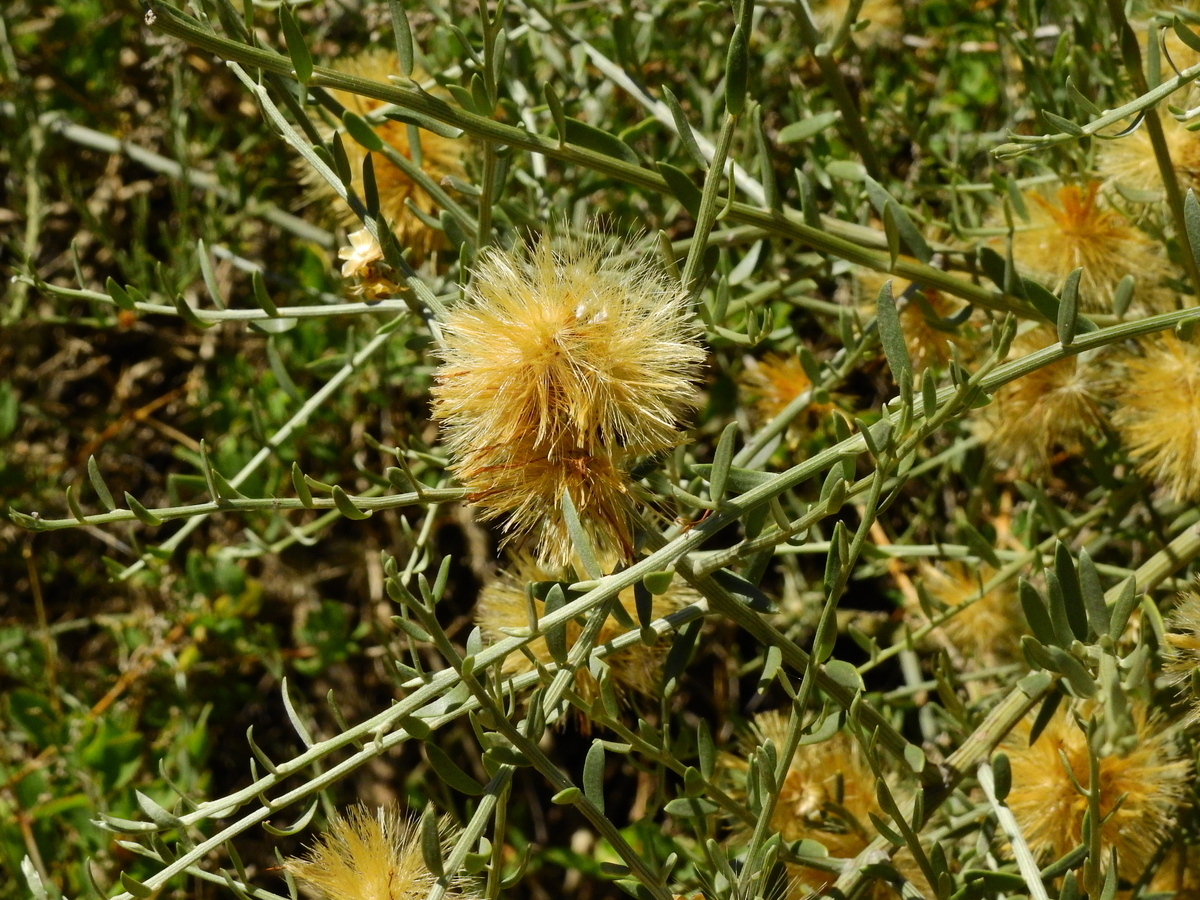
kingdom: Plantae
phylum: Tracheophyta
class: Magnoliopsida
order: Asterales
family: Asteraceae
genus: Cyclolepis
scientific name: Cyclolepis genistoides
